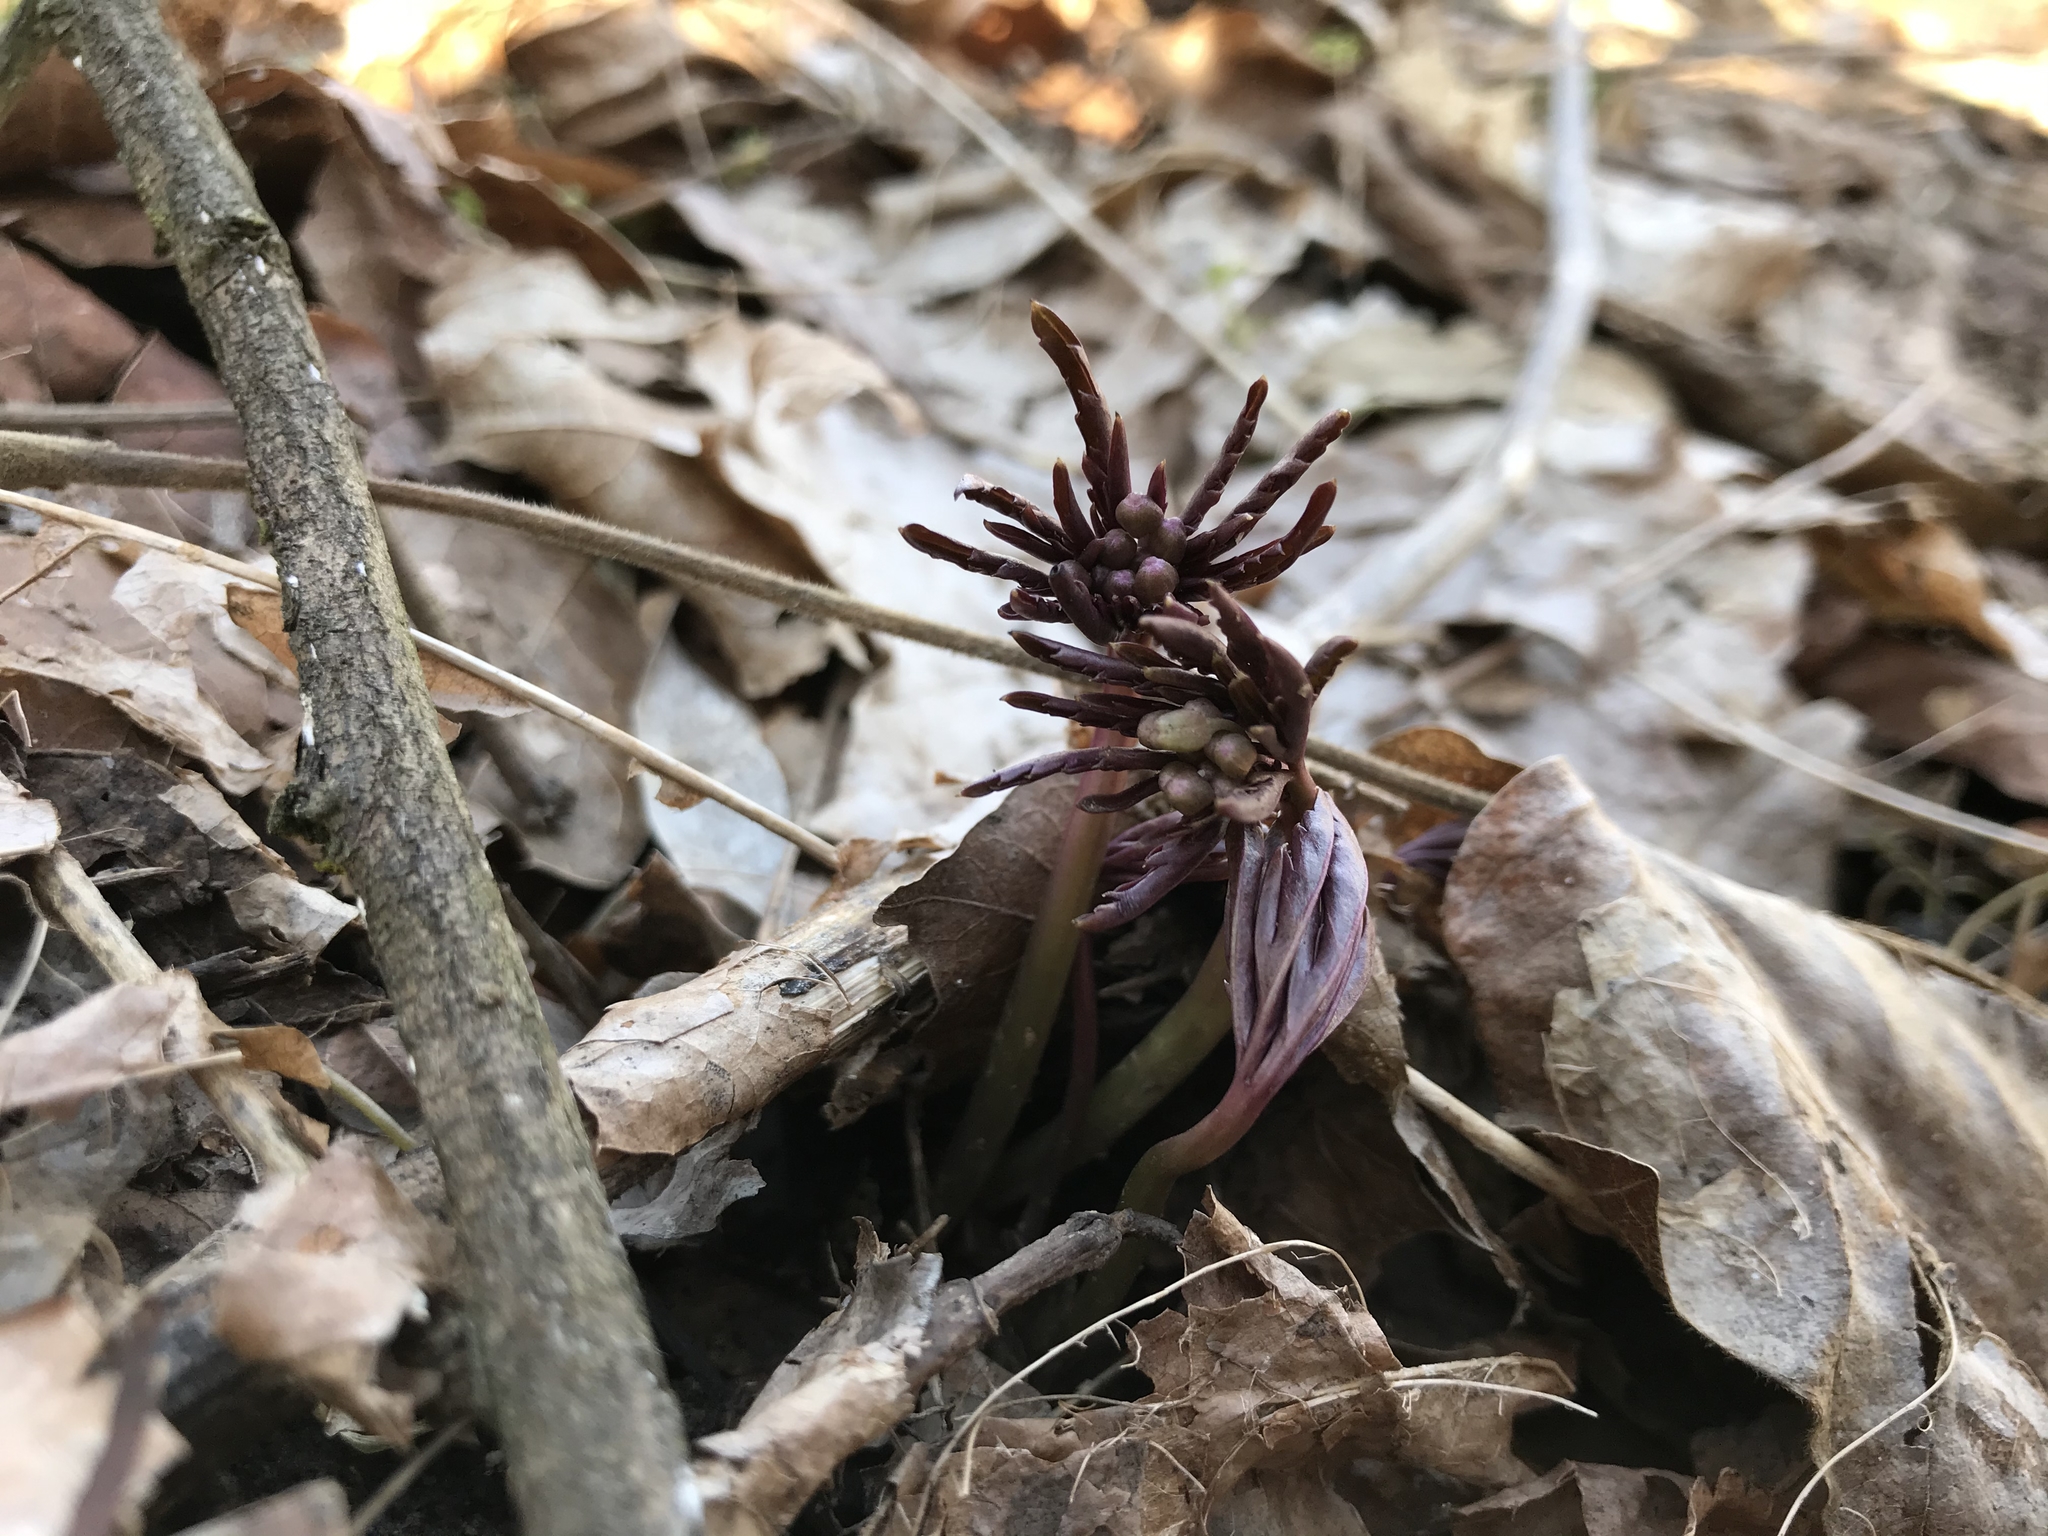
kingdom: Plantae
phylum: Tracheophyta
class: Magnoliopsida
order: Brassicales
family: Brassicaceae
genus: Cardamine
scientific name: Cardamine concatenata
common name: Cut-leaf toothcup
